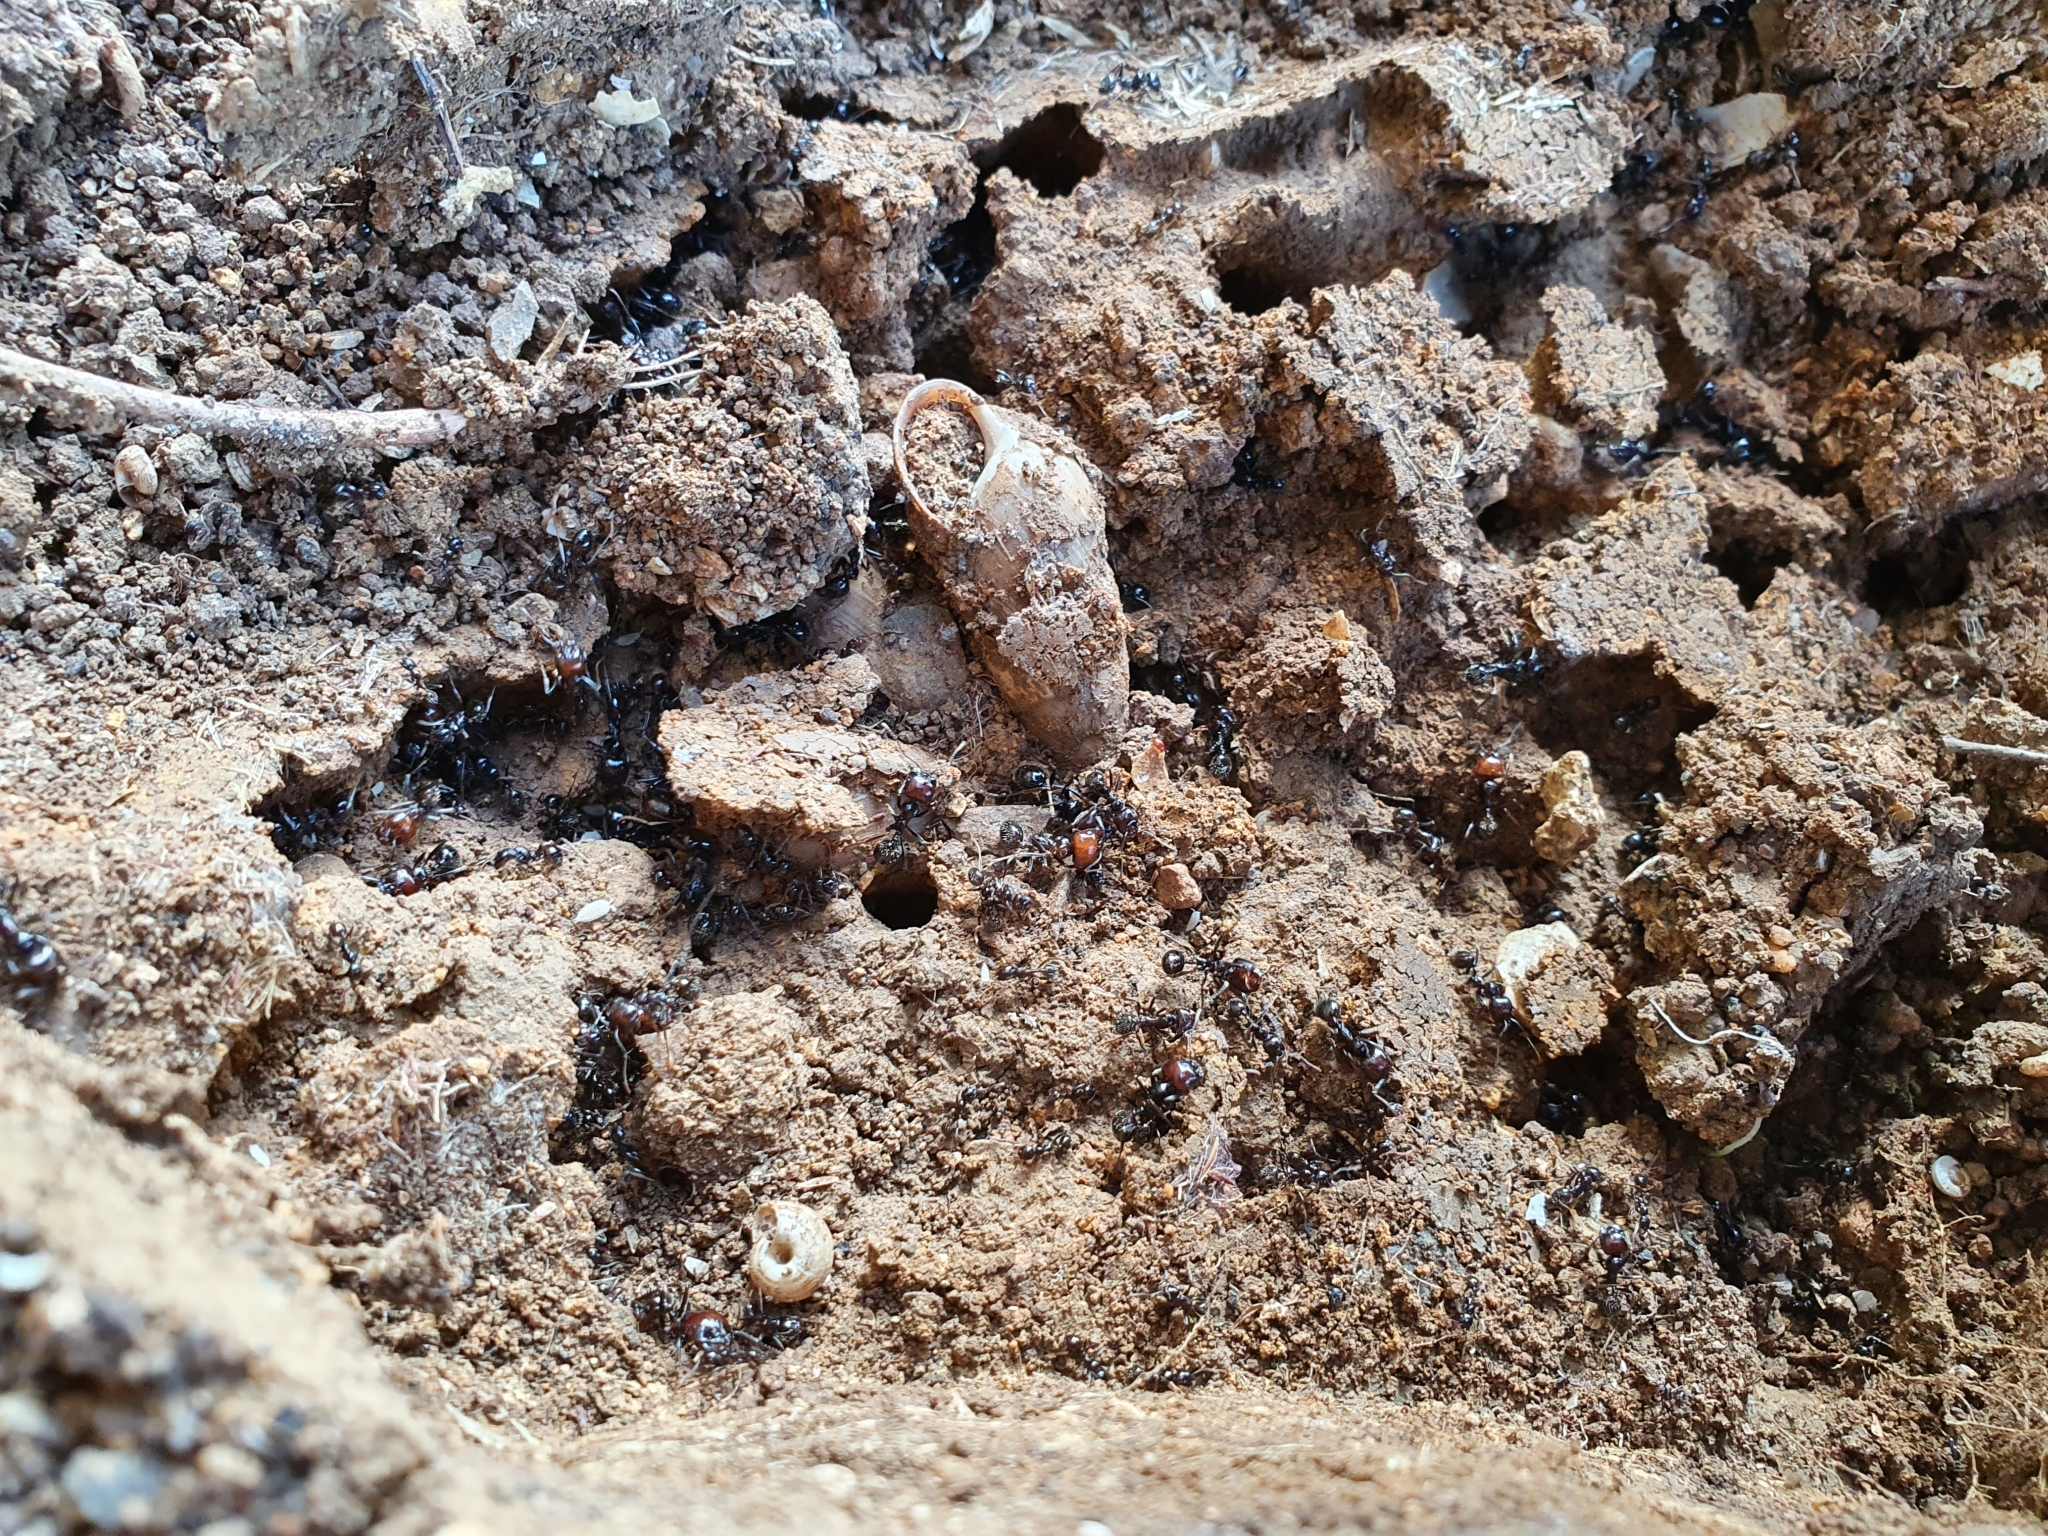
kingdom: Animalia
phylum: Arthropoda
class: Insecta
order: Hymenoptera
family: Formicidae
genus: Messor
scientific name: Messor barbarus
